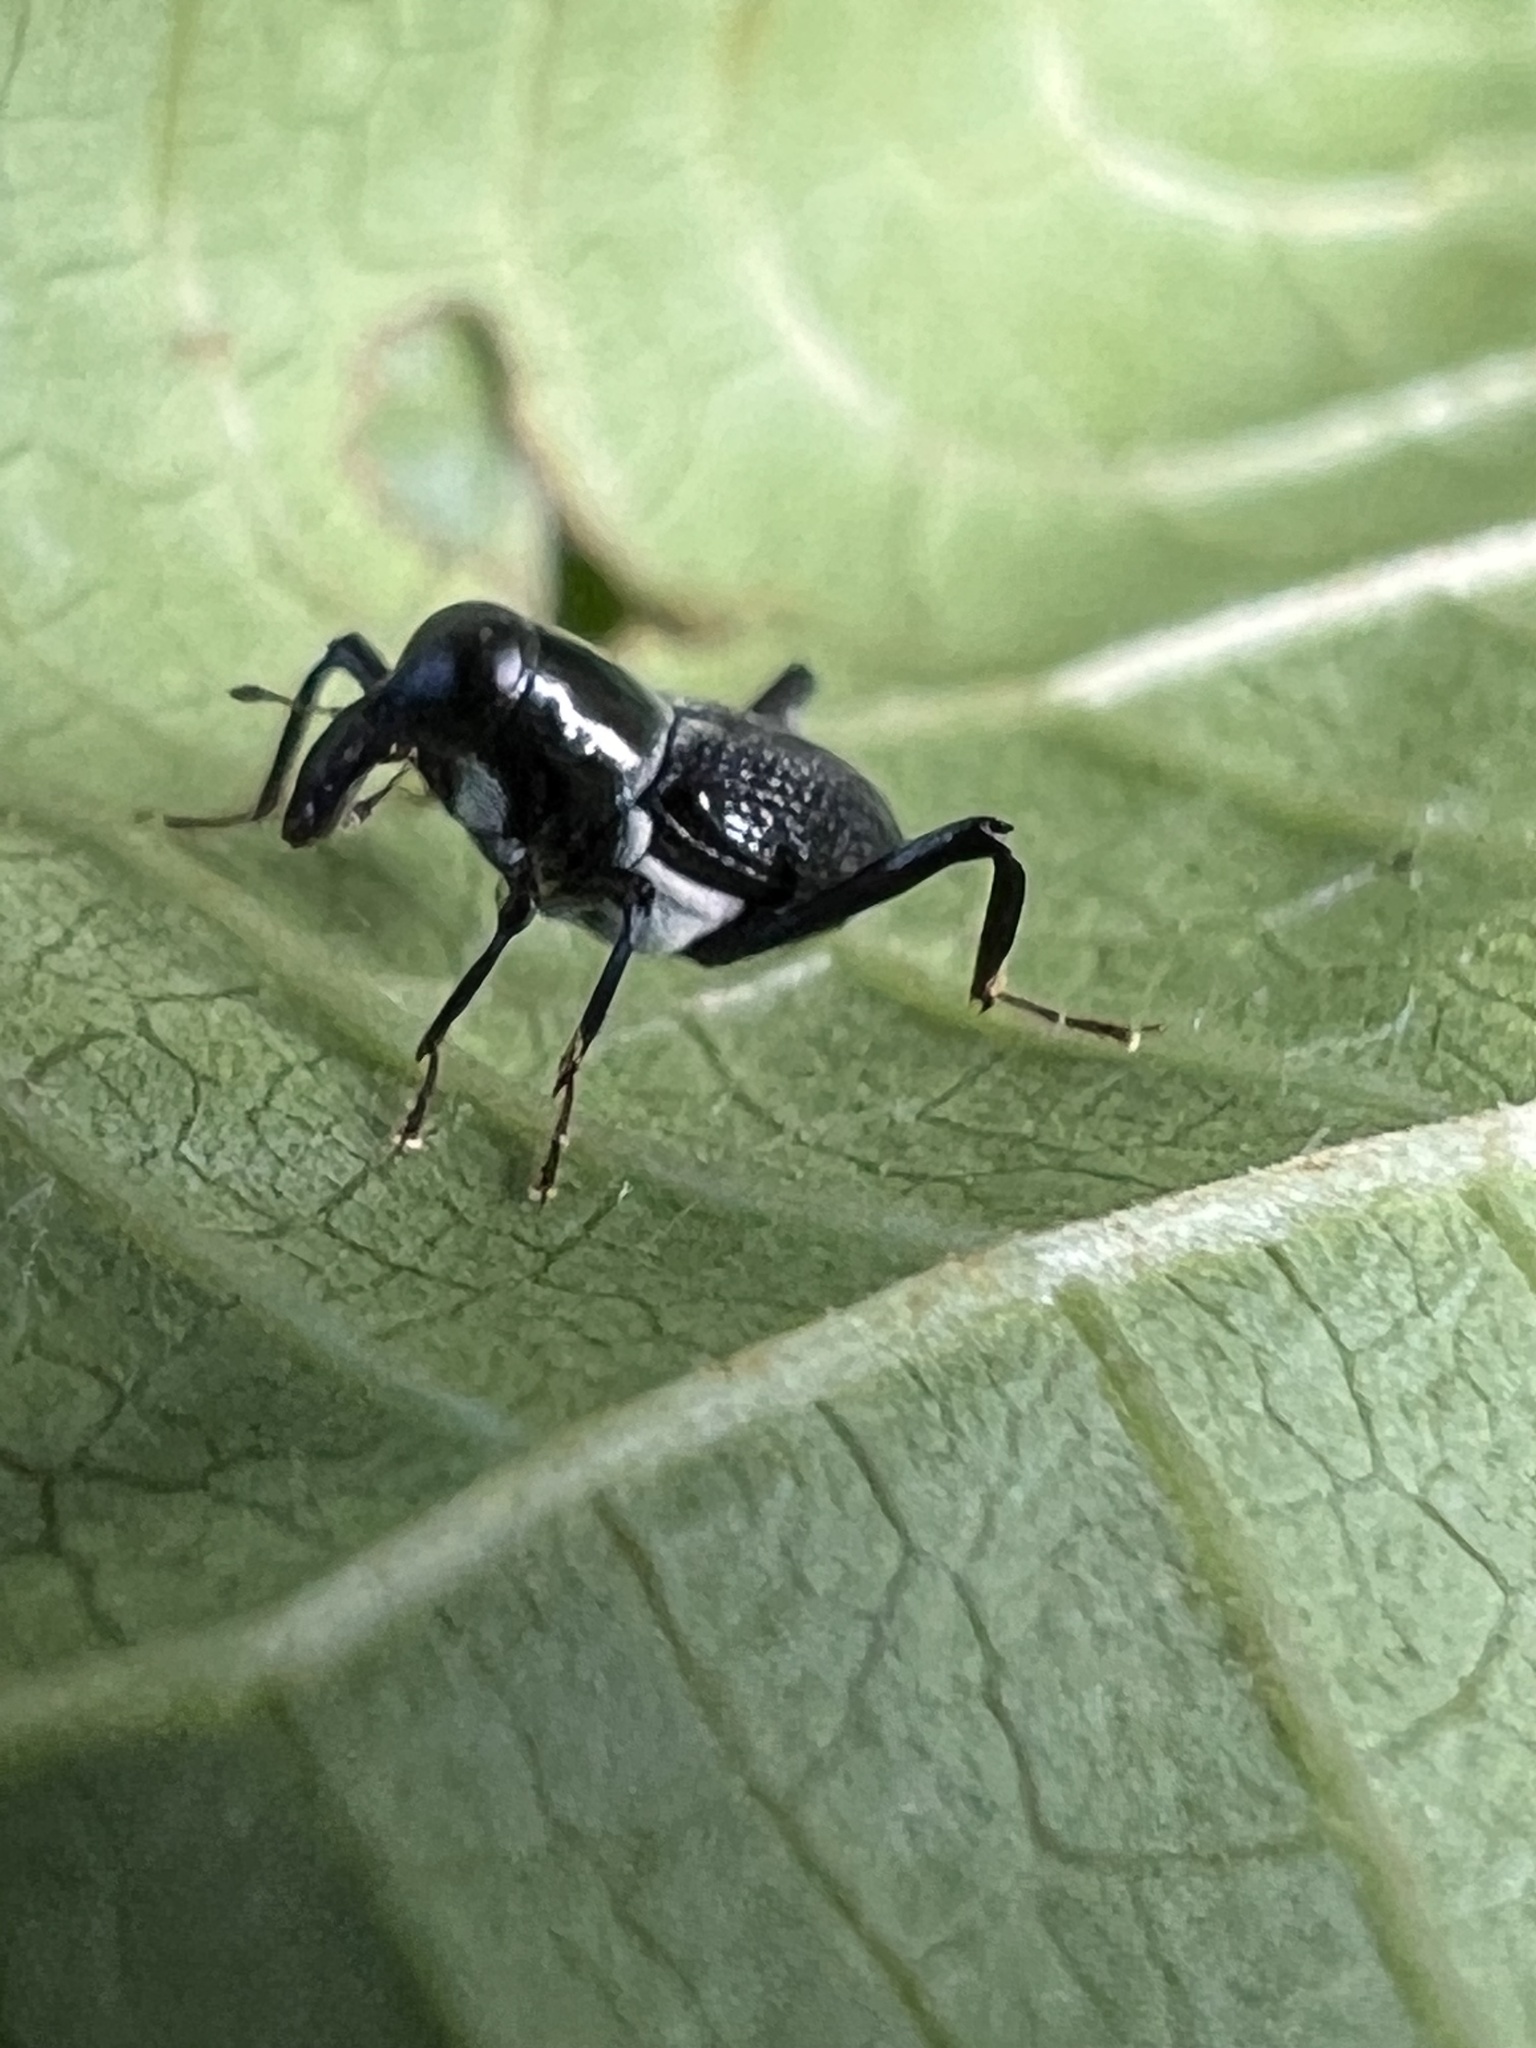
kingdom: Animalia
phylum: Arthropoda
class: Insecta
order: Coleoptera
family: Curculionidae
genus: Lissoderes
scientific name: Lissoderes subnudus
